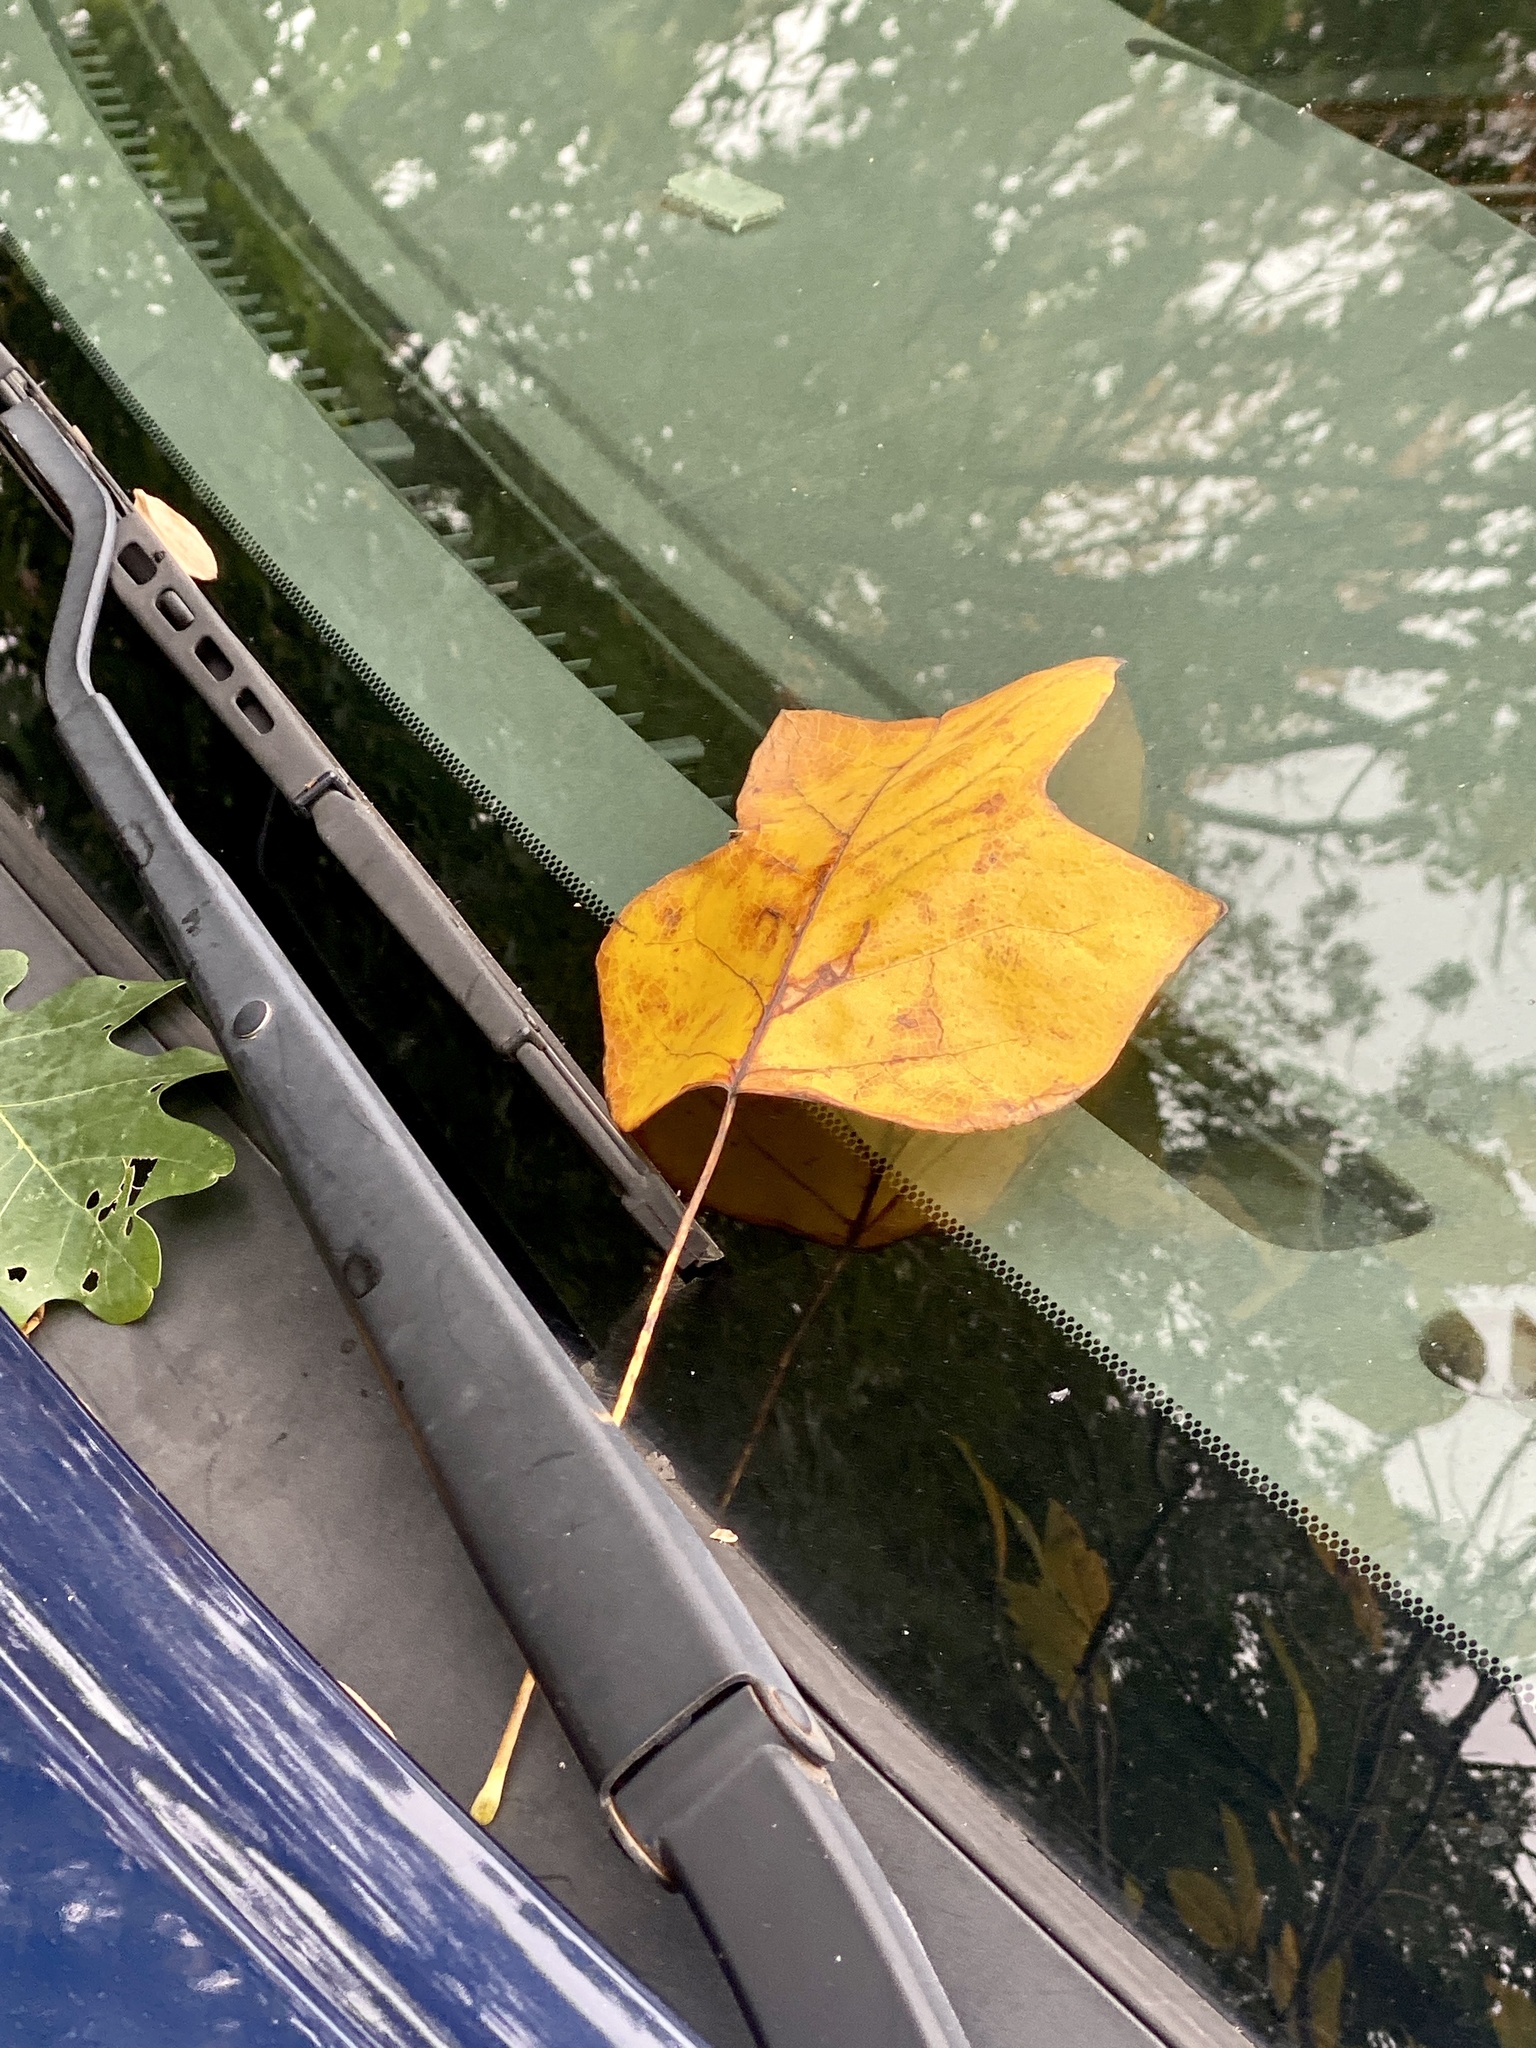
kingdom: Plantae
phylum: Tracheophyta
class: Magnoliopsida
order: Magnoliales
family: Magnoliaceae
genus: Liriodendron
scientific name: Liriodendron tulipifera
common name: Tulip tree
